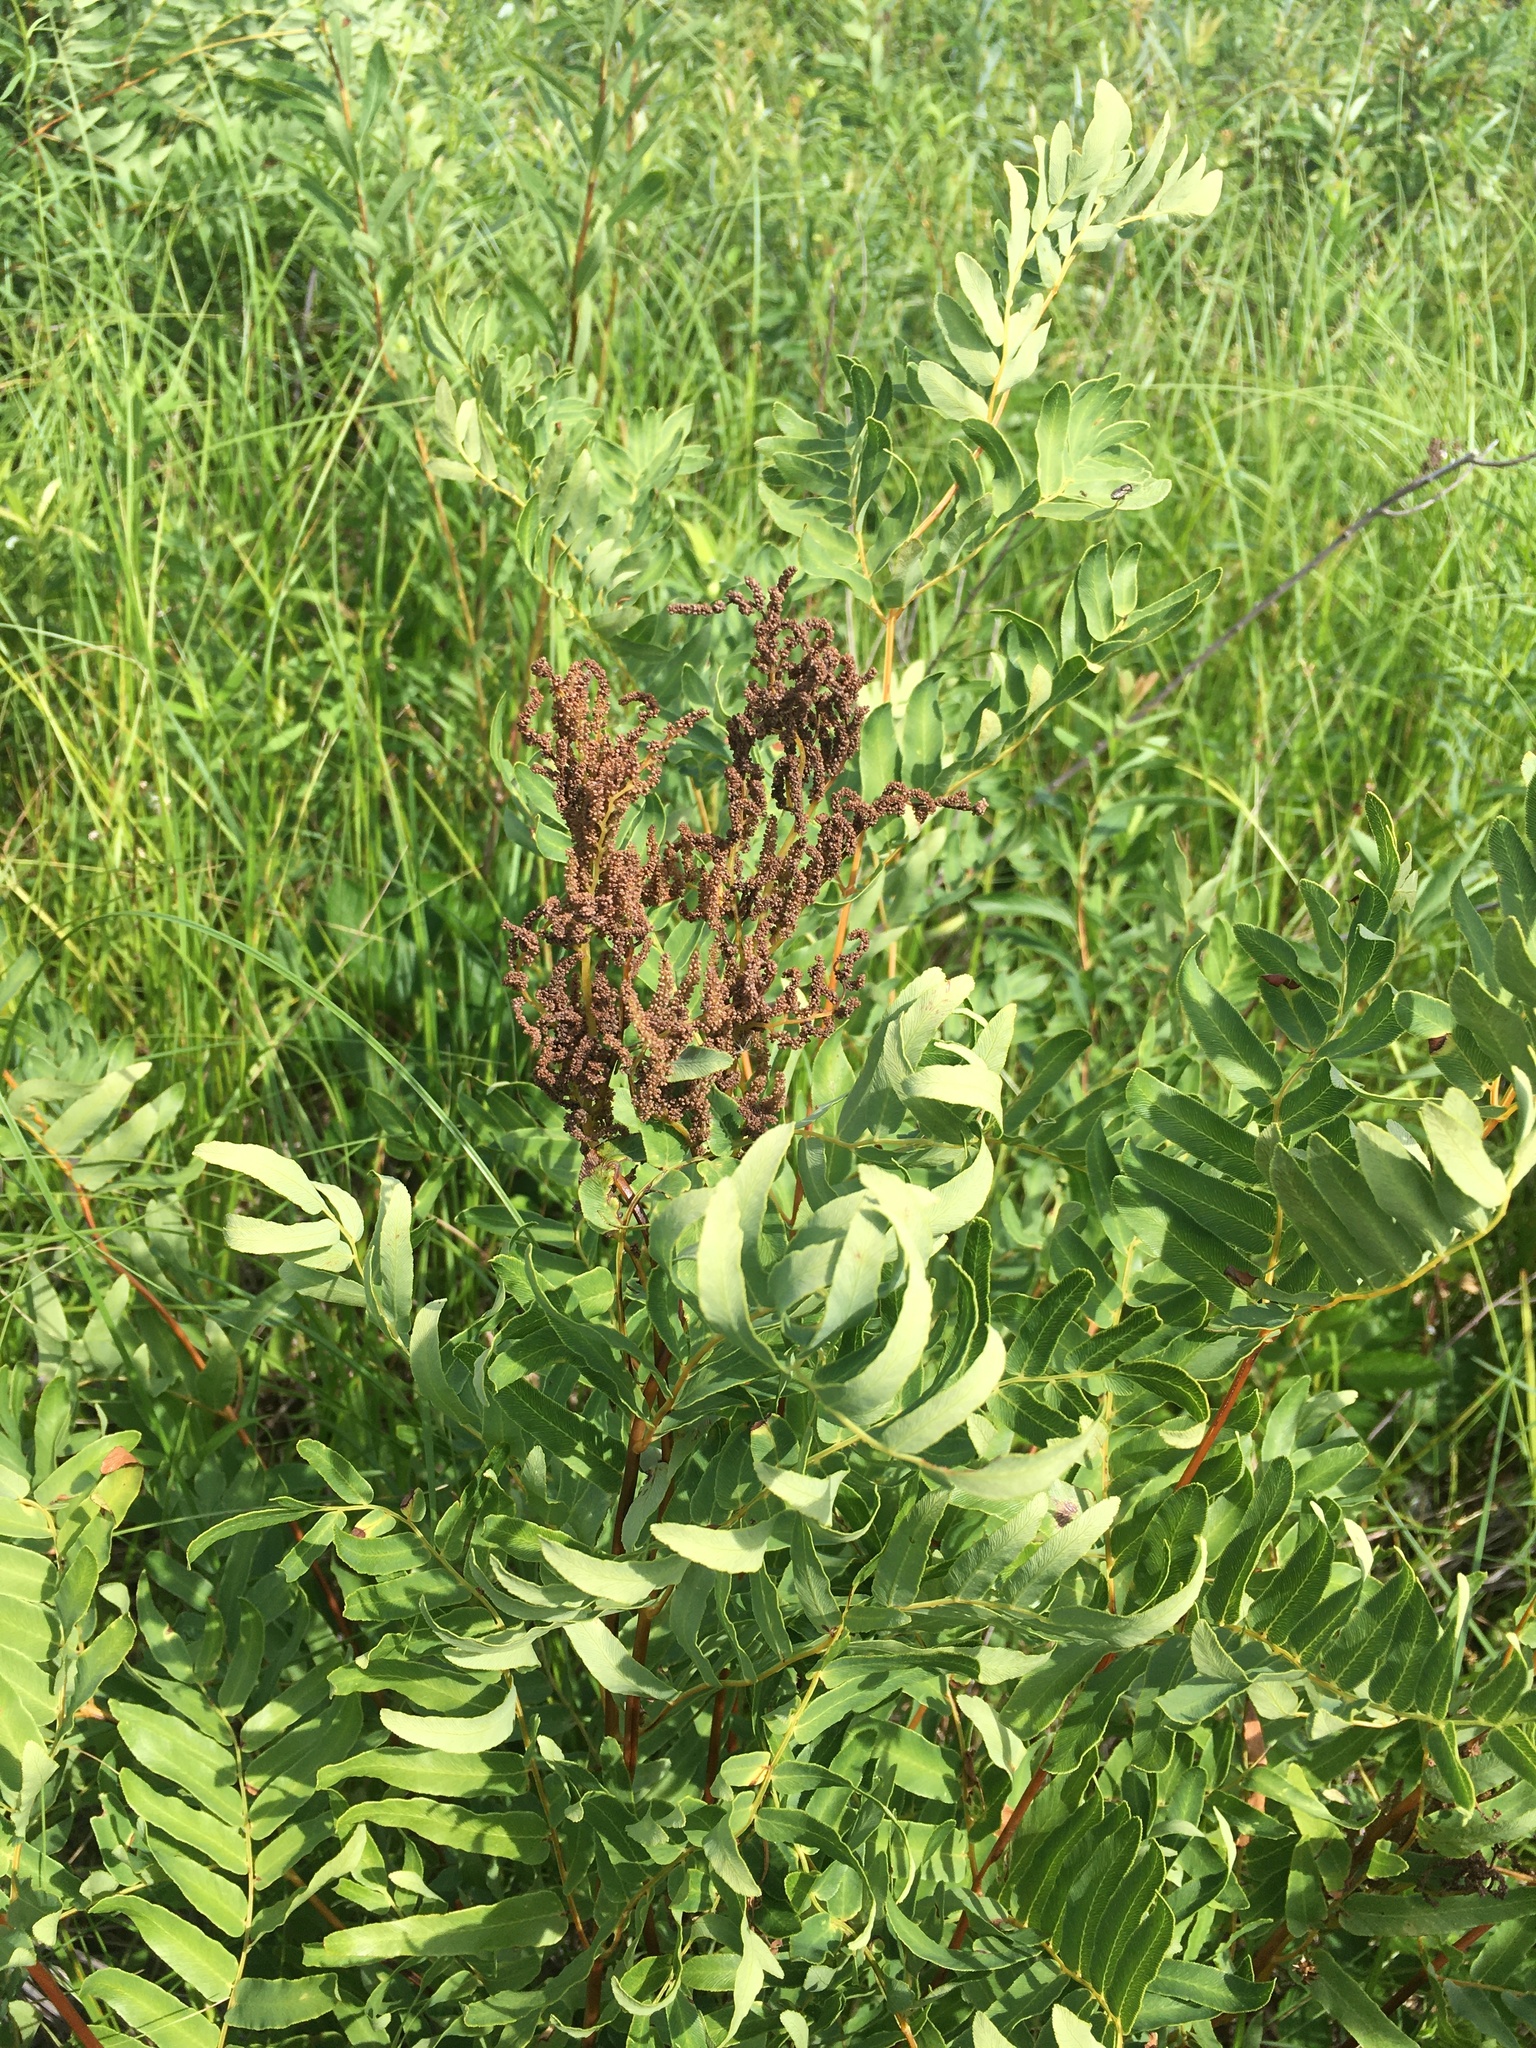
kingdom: Plantae
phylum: Tracheophyta
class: Polypodiopsida
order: Osmundales
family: Osmundaceae
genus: Osmunda
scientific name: Osmunda spectabilis
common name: American royal fern
